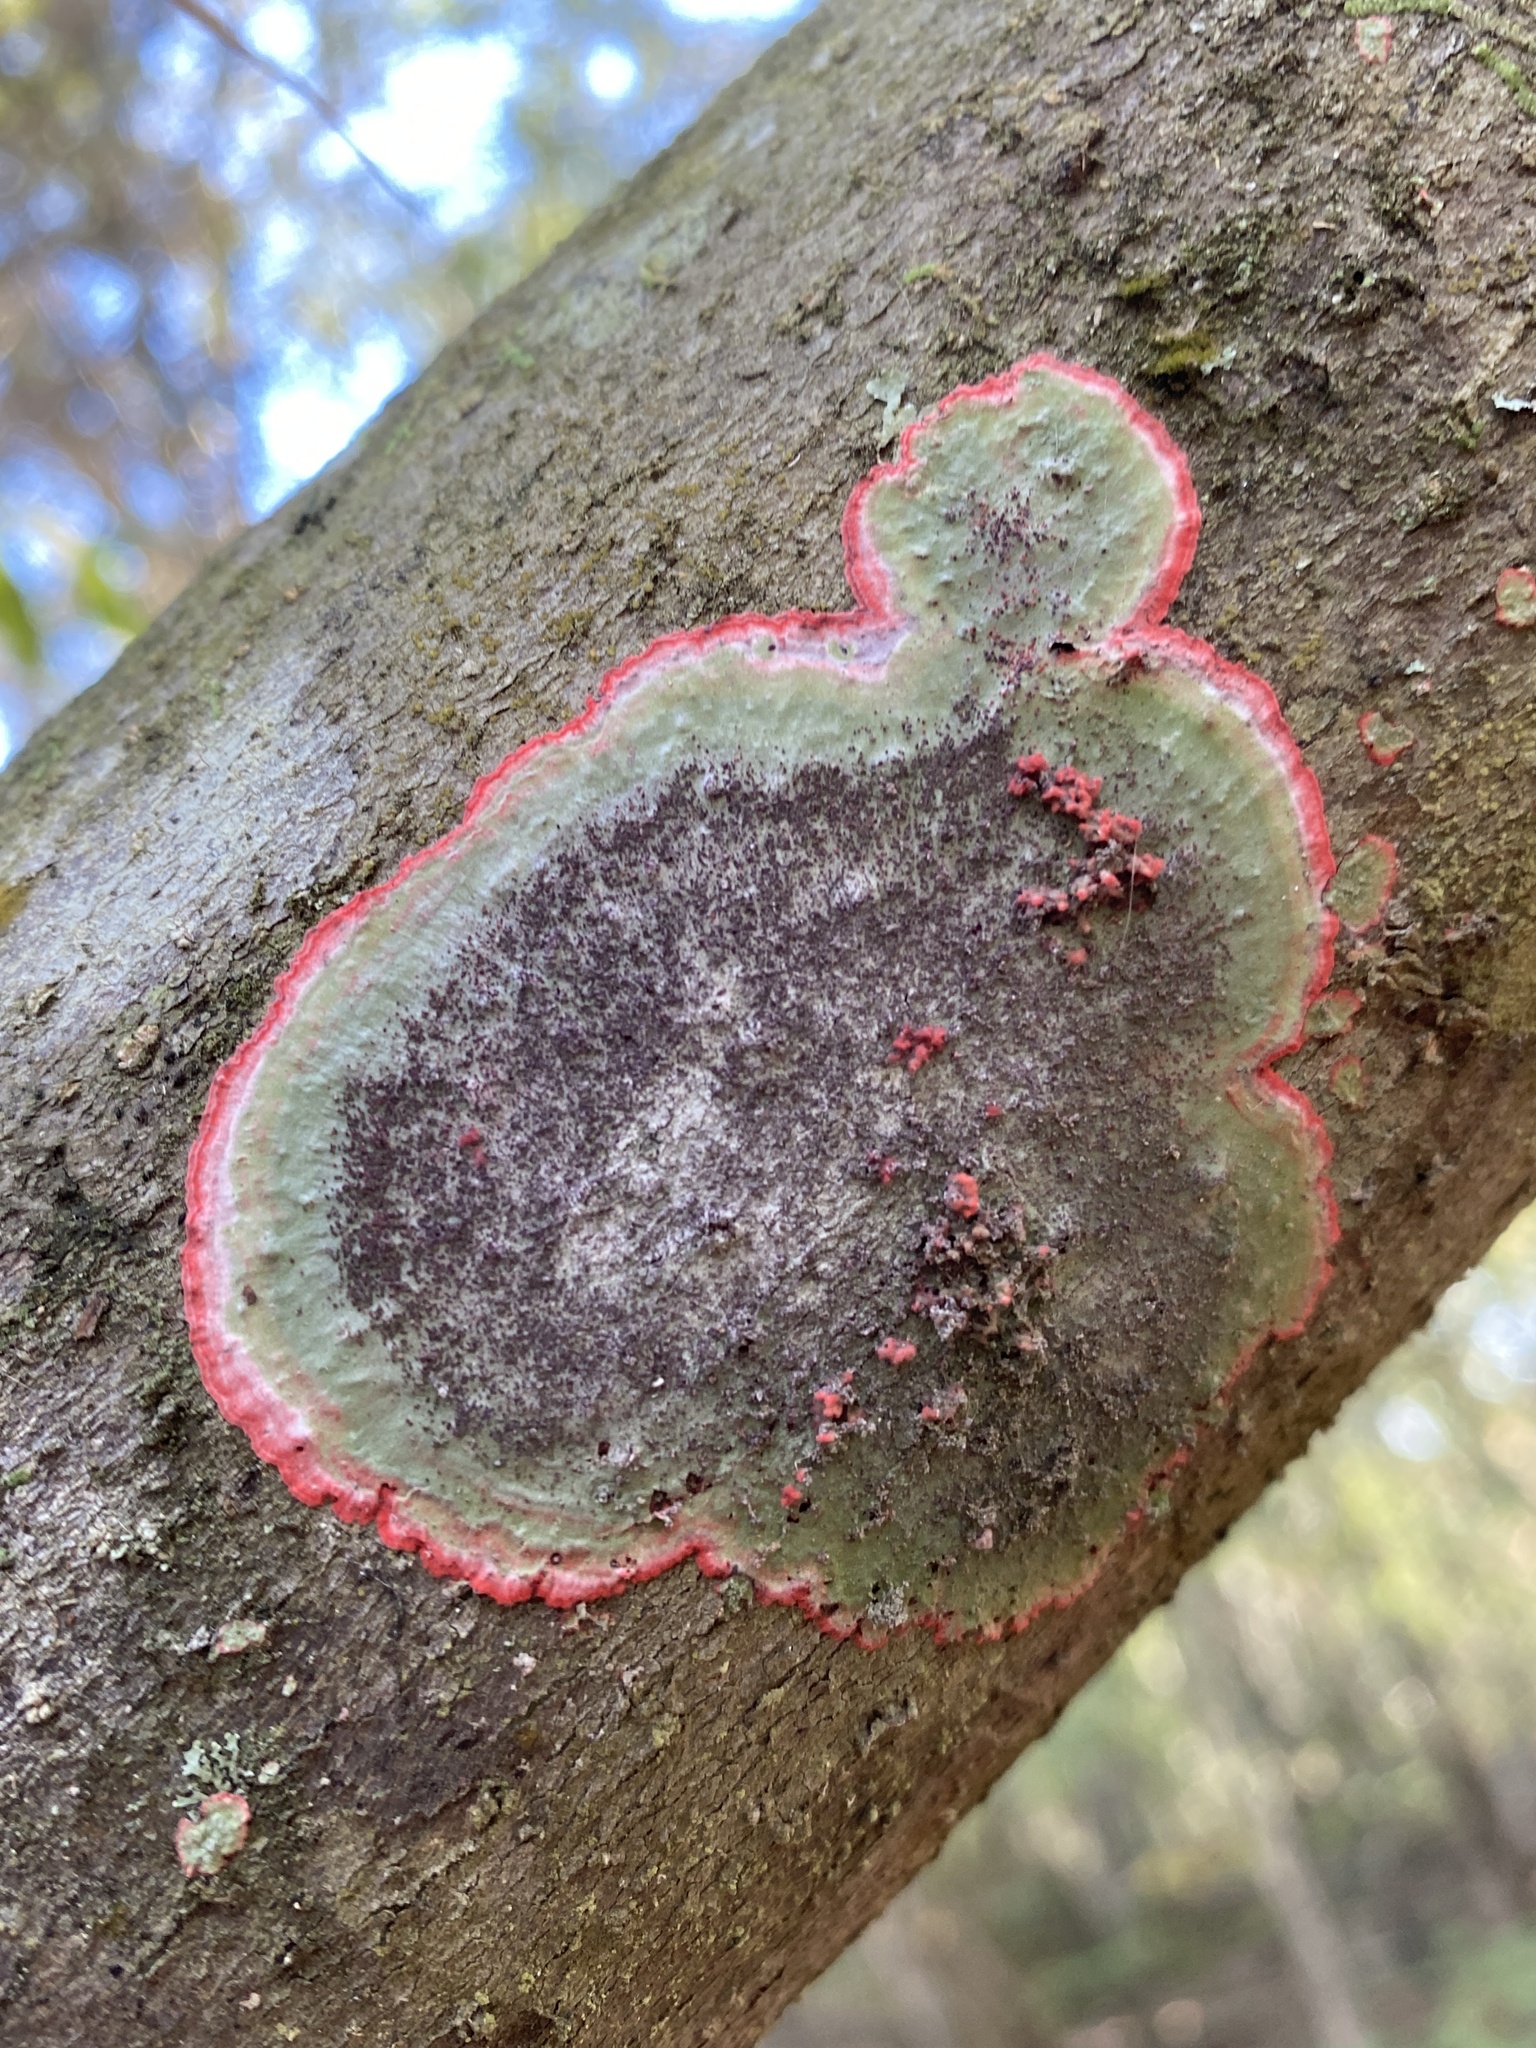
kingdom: Fungi
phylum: Ascomycota
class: Arthoniomycetes
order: Arthoniales
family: Arthoniaceae
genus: Herpothallon
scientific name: Herpothallon rubrocinctum
